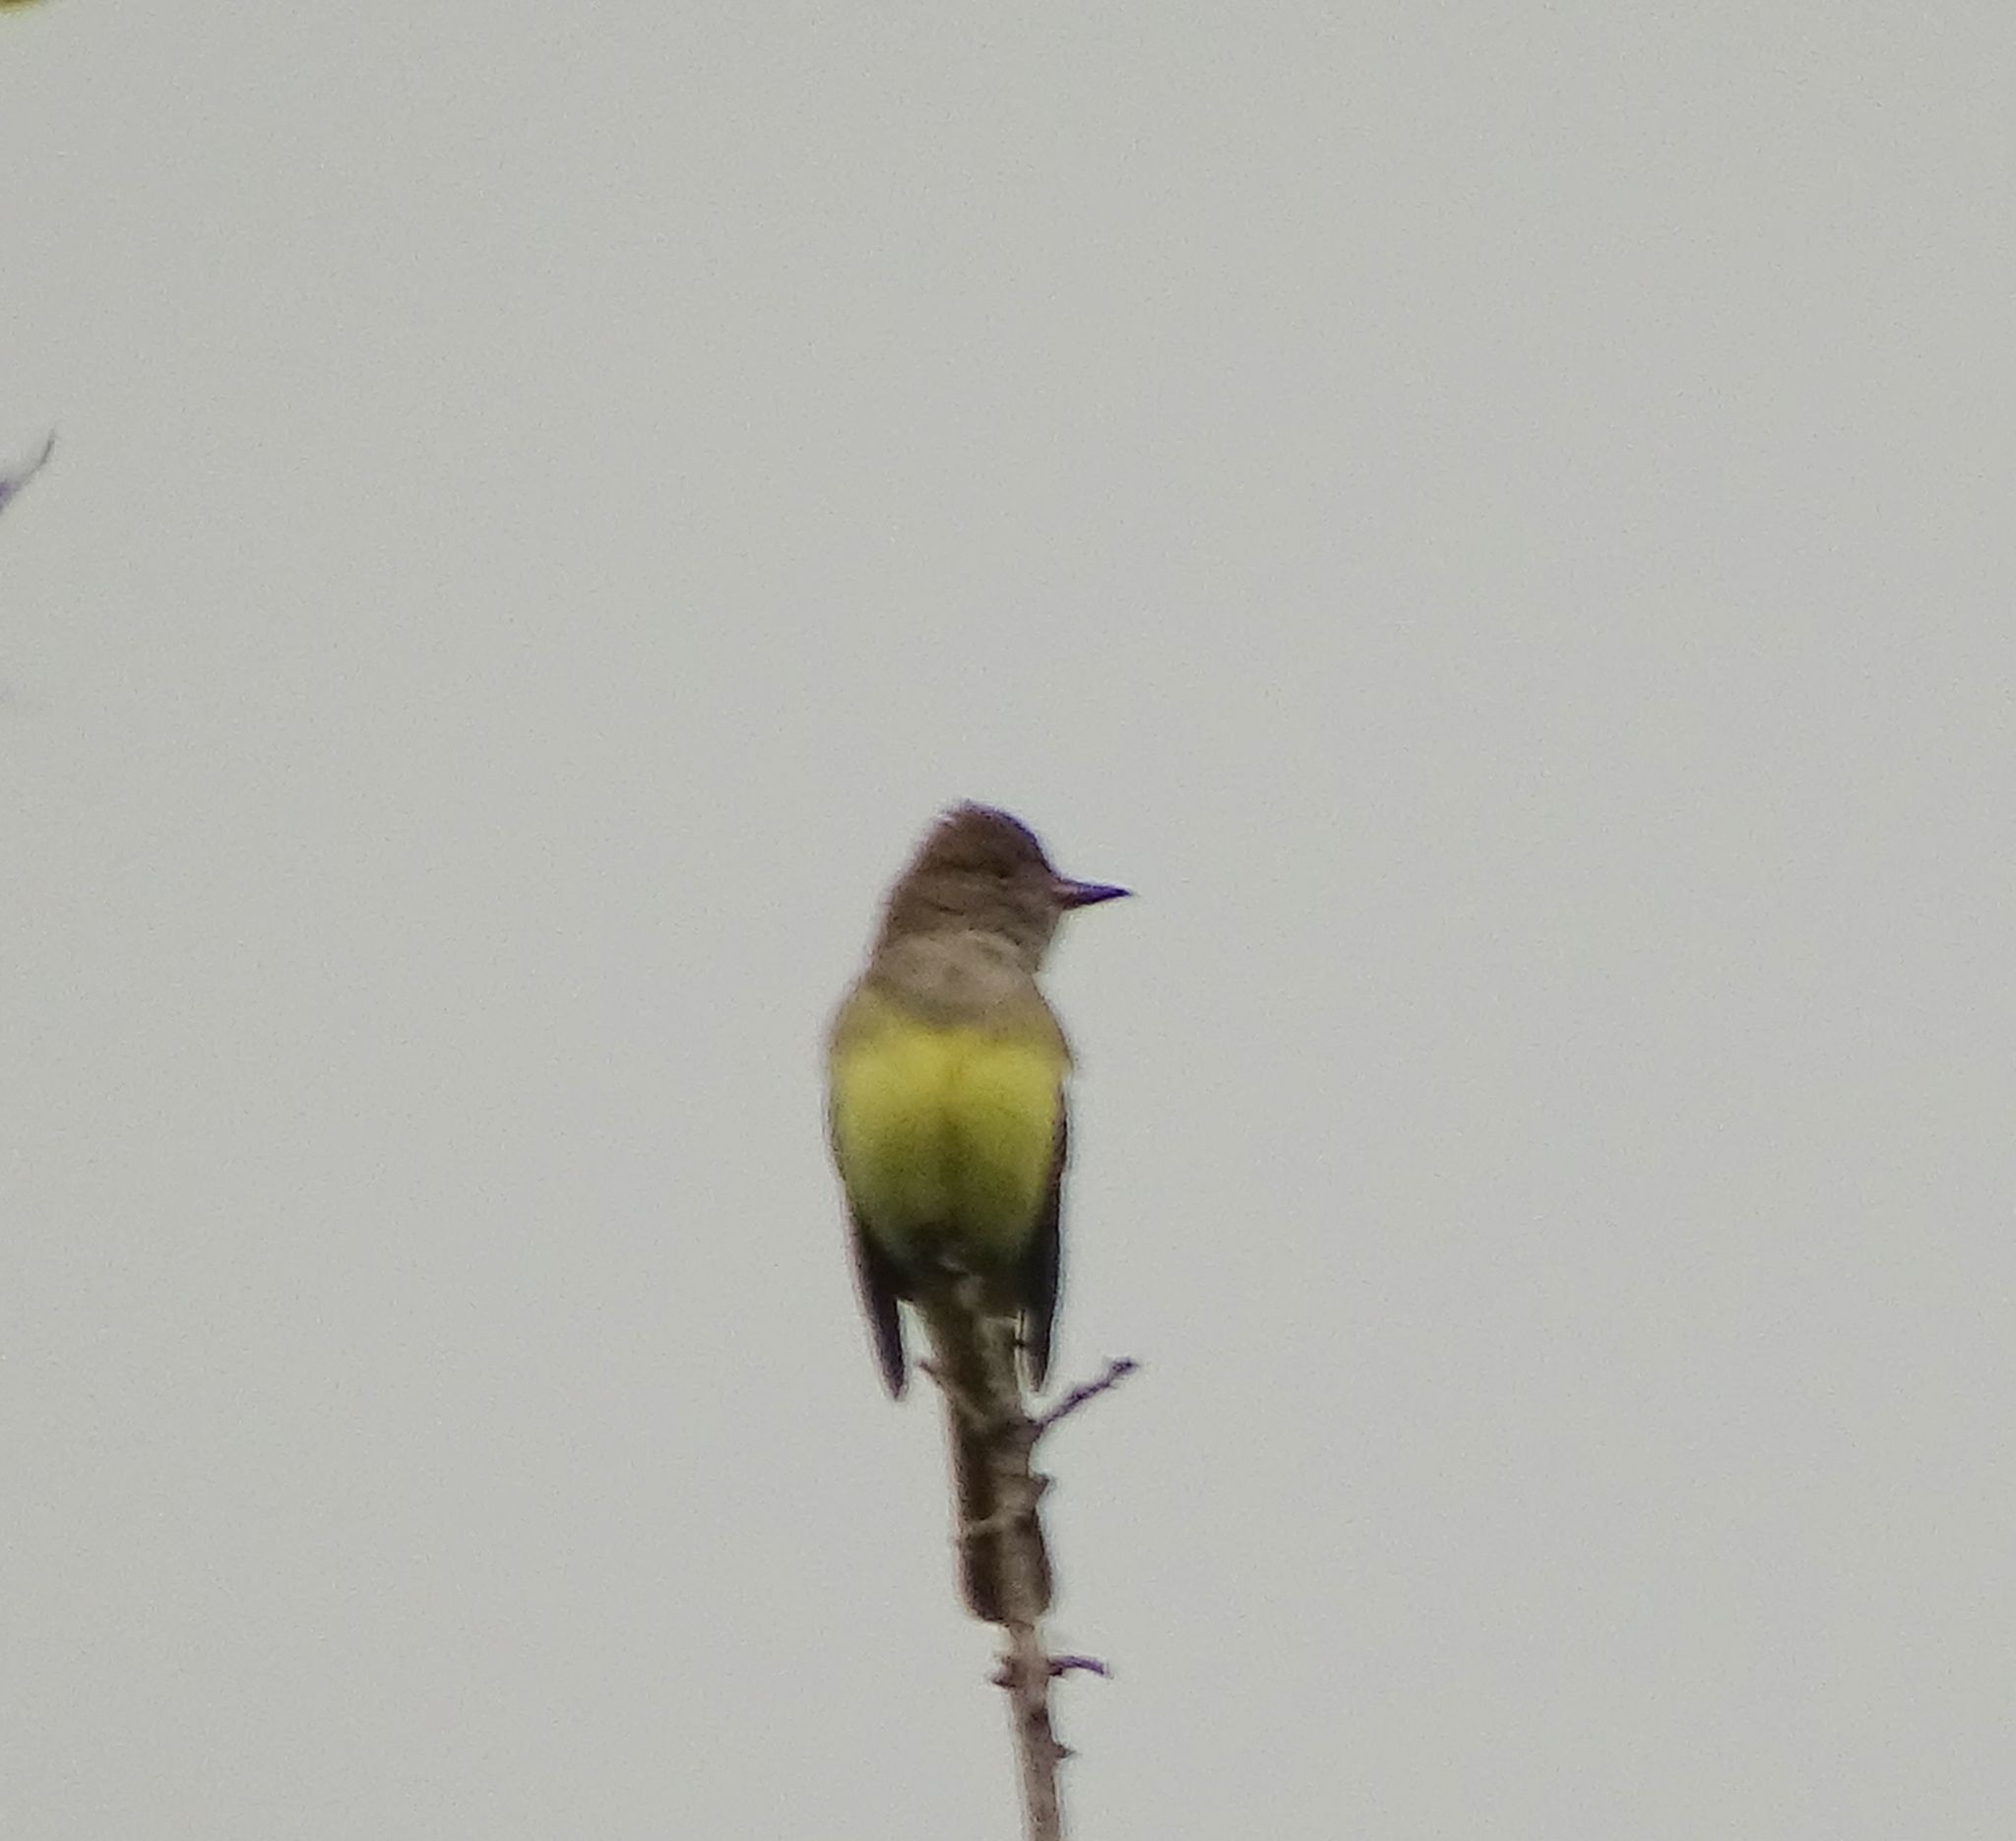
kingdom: Animalia
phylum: Chordata
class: Aves
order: Passeriformes
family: Tyrannidae
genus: Myiarchus
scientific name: Myiarchus crinitus
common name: Great crested flycatcher
